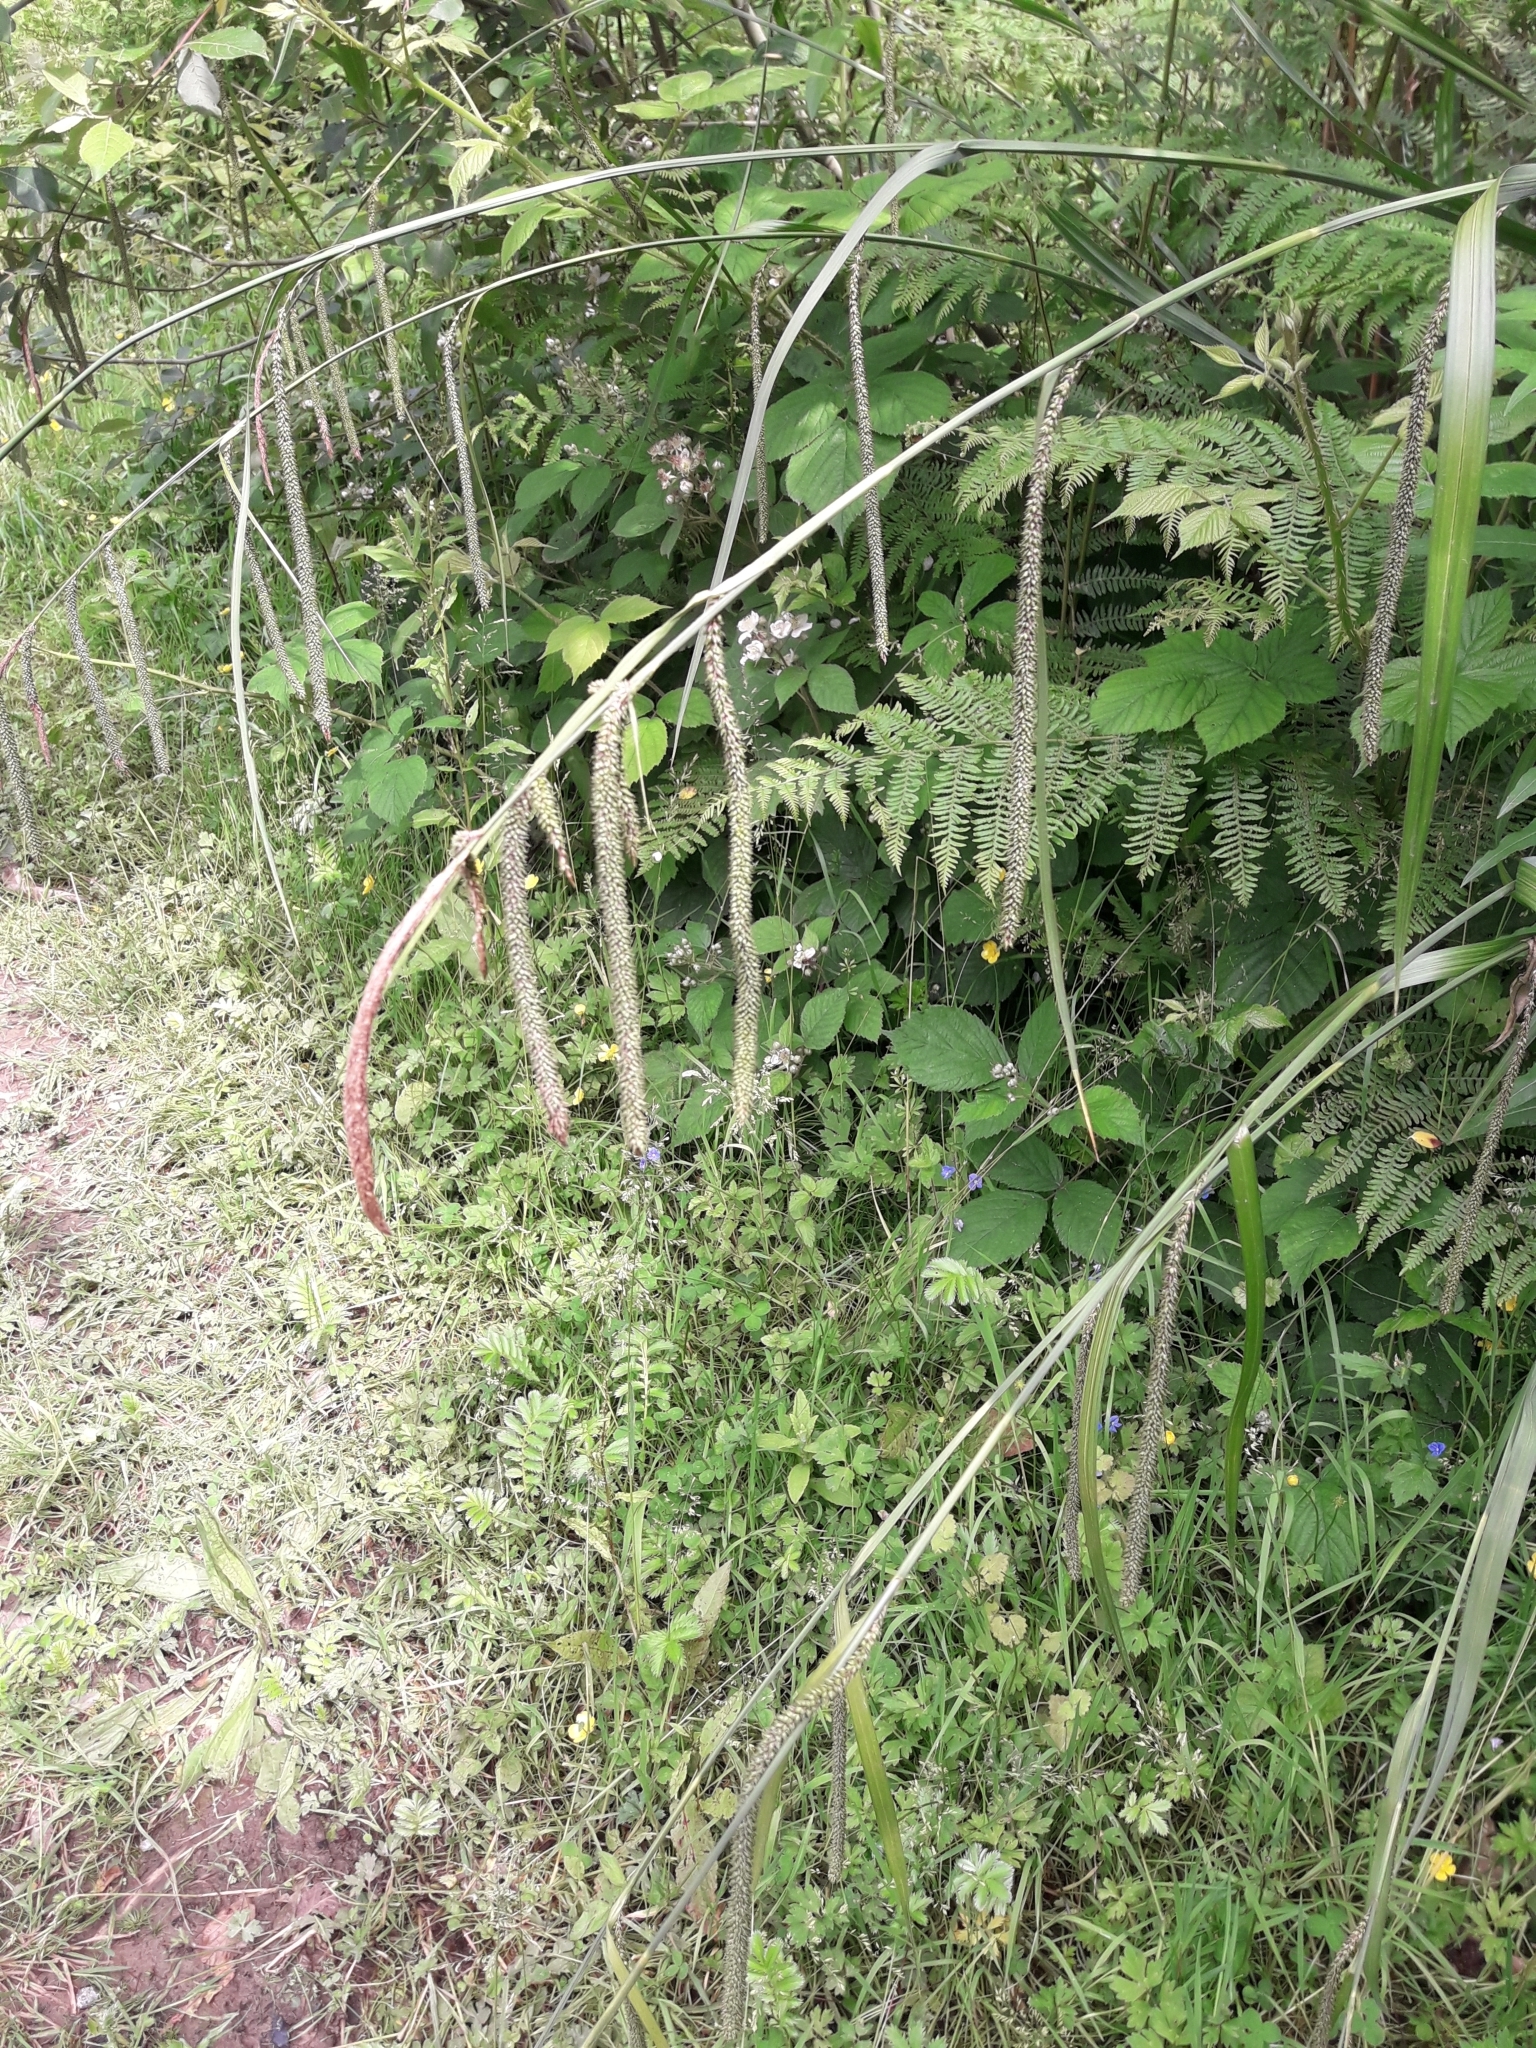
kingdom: Plantae
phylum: Tracheophyta
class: Liliopsida
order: Poales
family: Cyperaceae
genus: Carex
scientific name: Carex pendula
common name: Pendulous sedge
